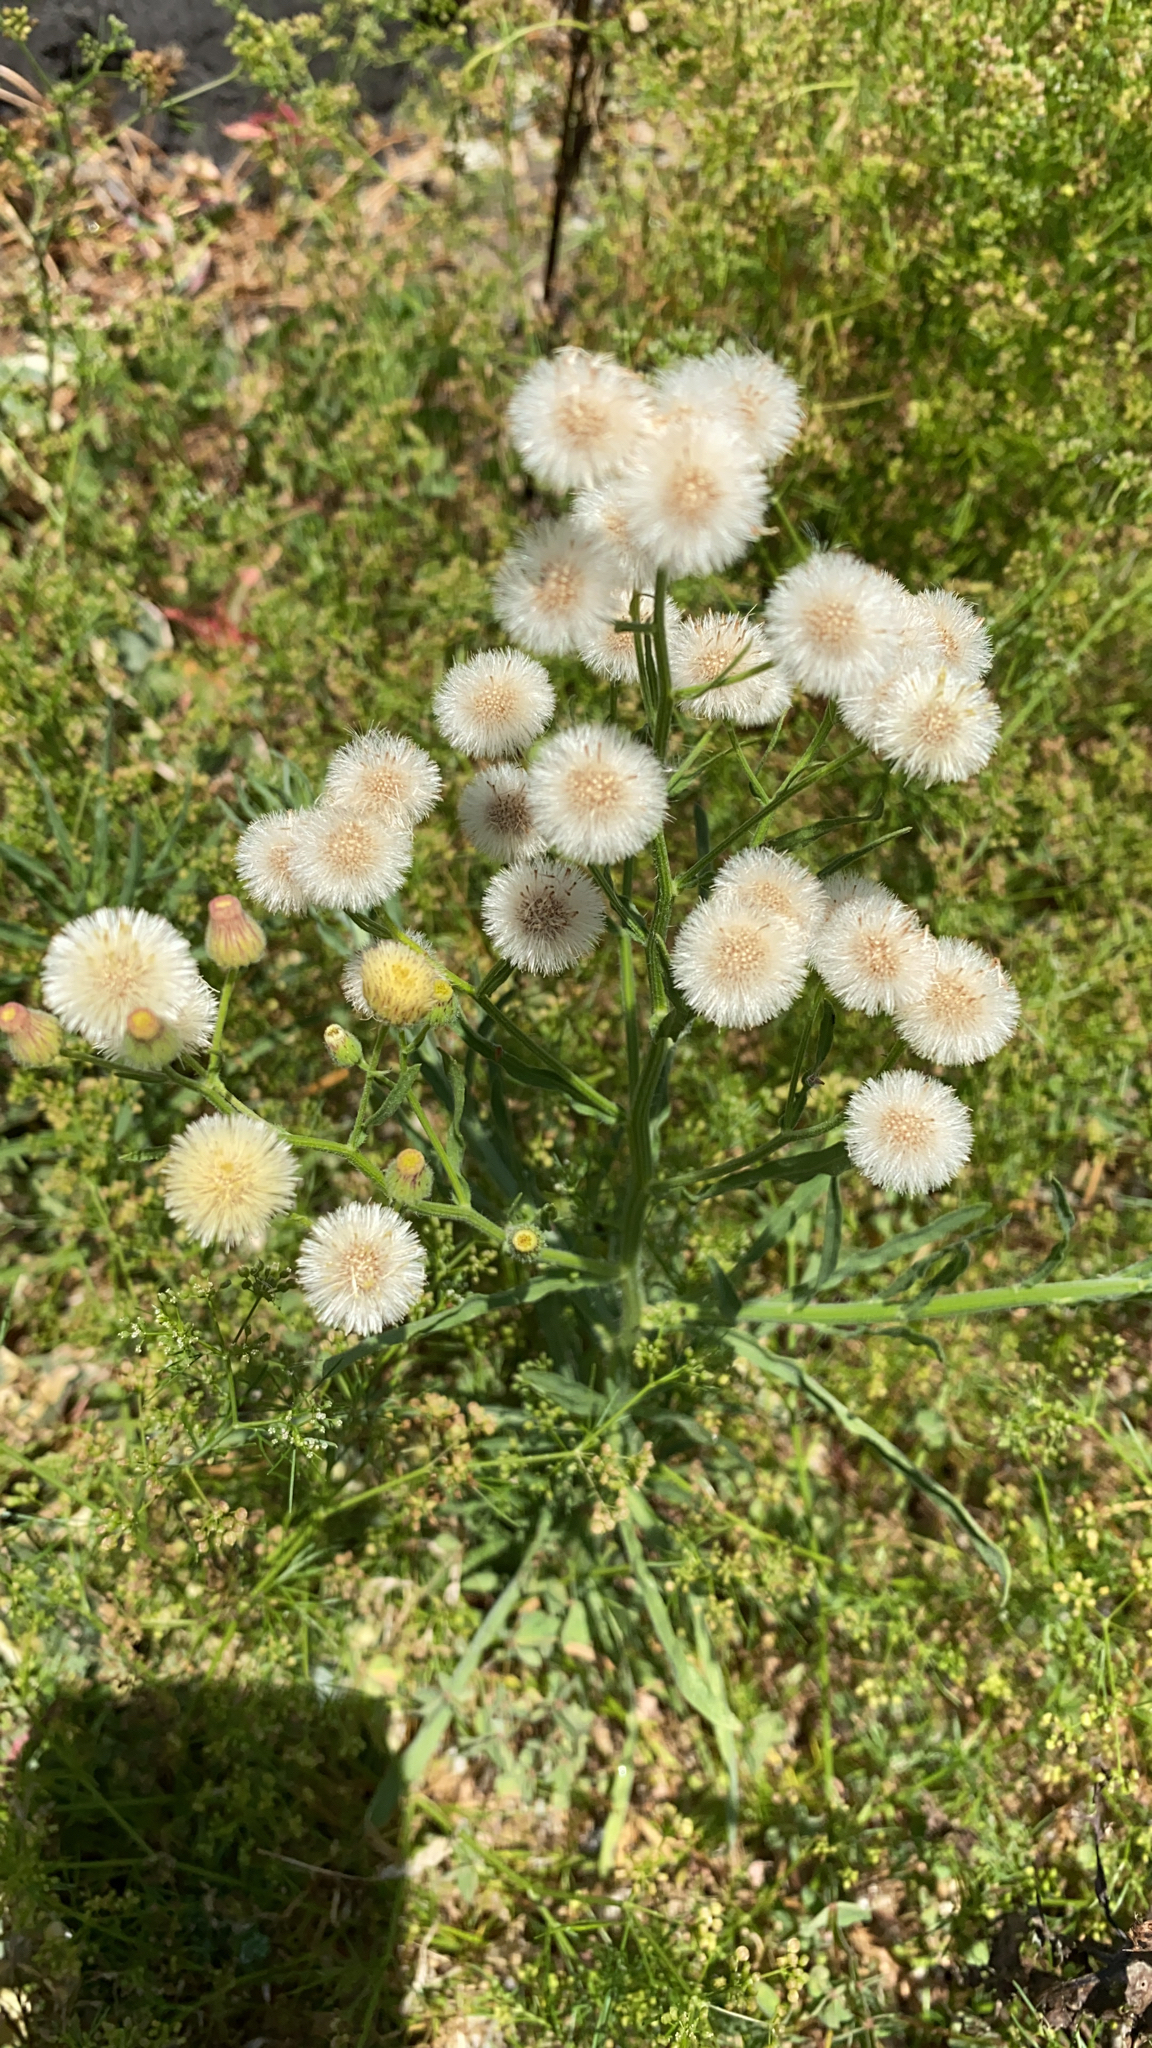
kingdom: Plantae
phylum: Tracheophyta
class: Magnoliopsida
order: Asterales
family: Asteraceae
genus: Erigeron
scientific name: Erigeron bonariensis
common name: Argentine fleabane
